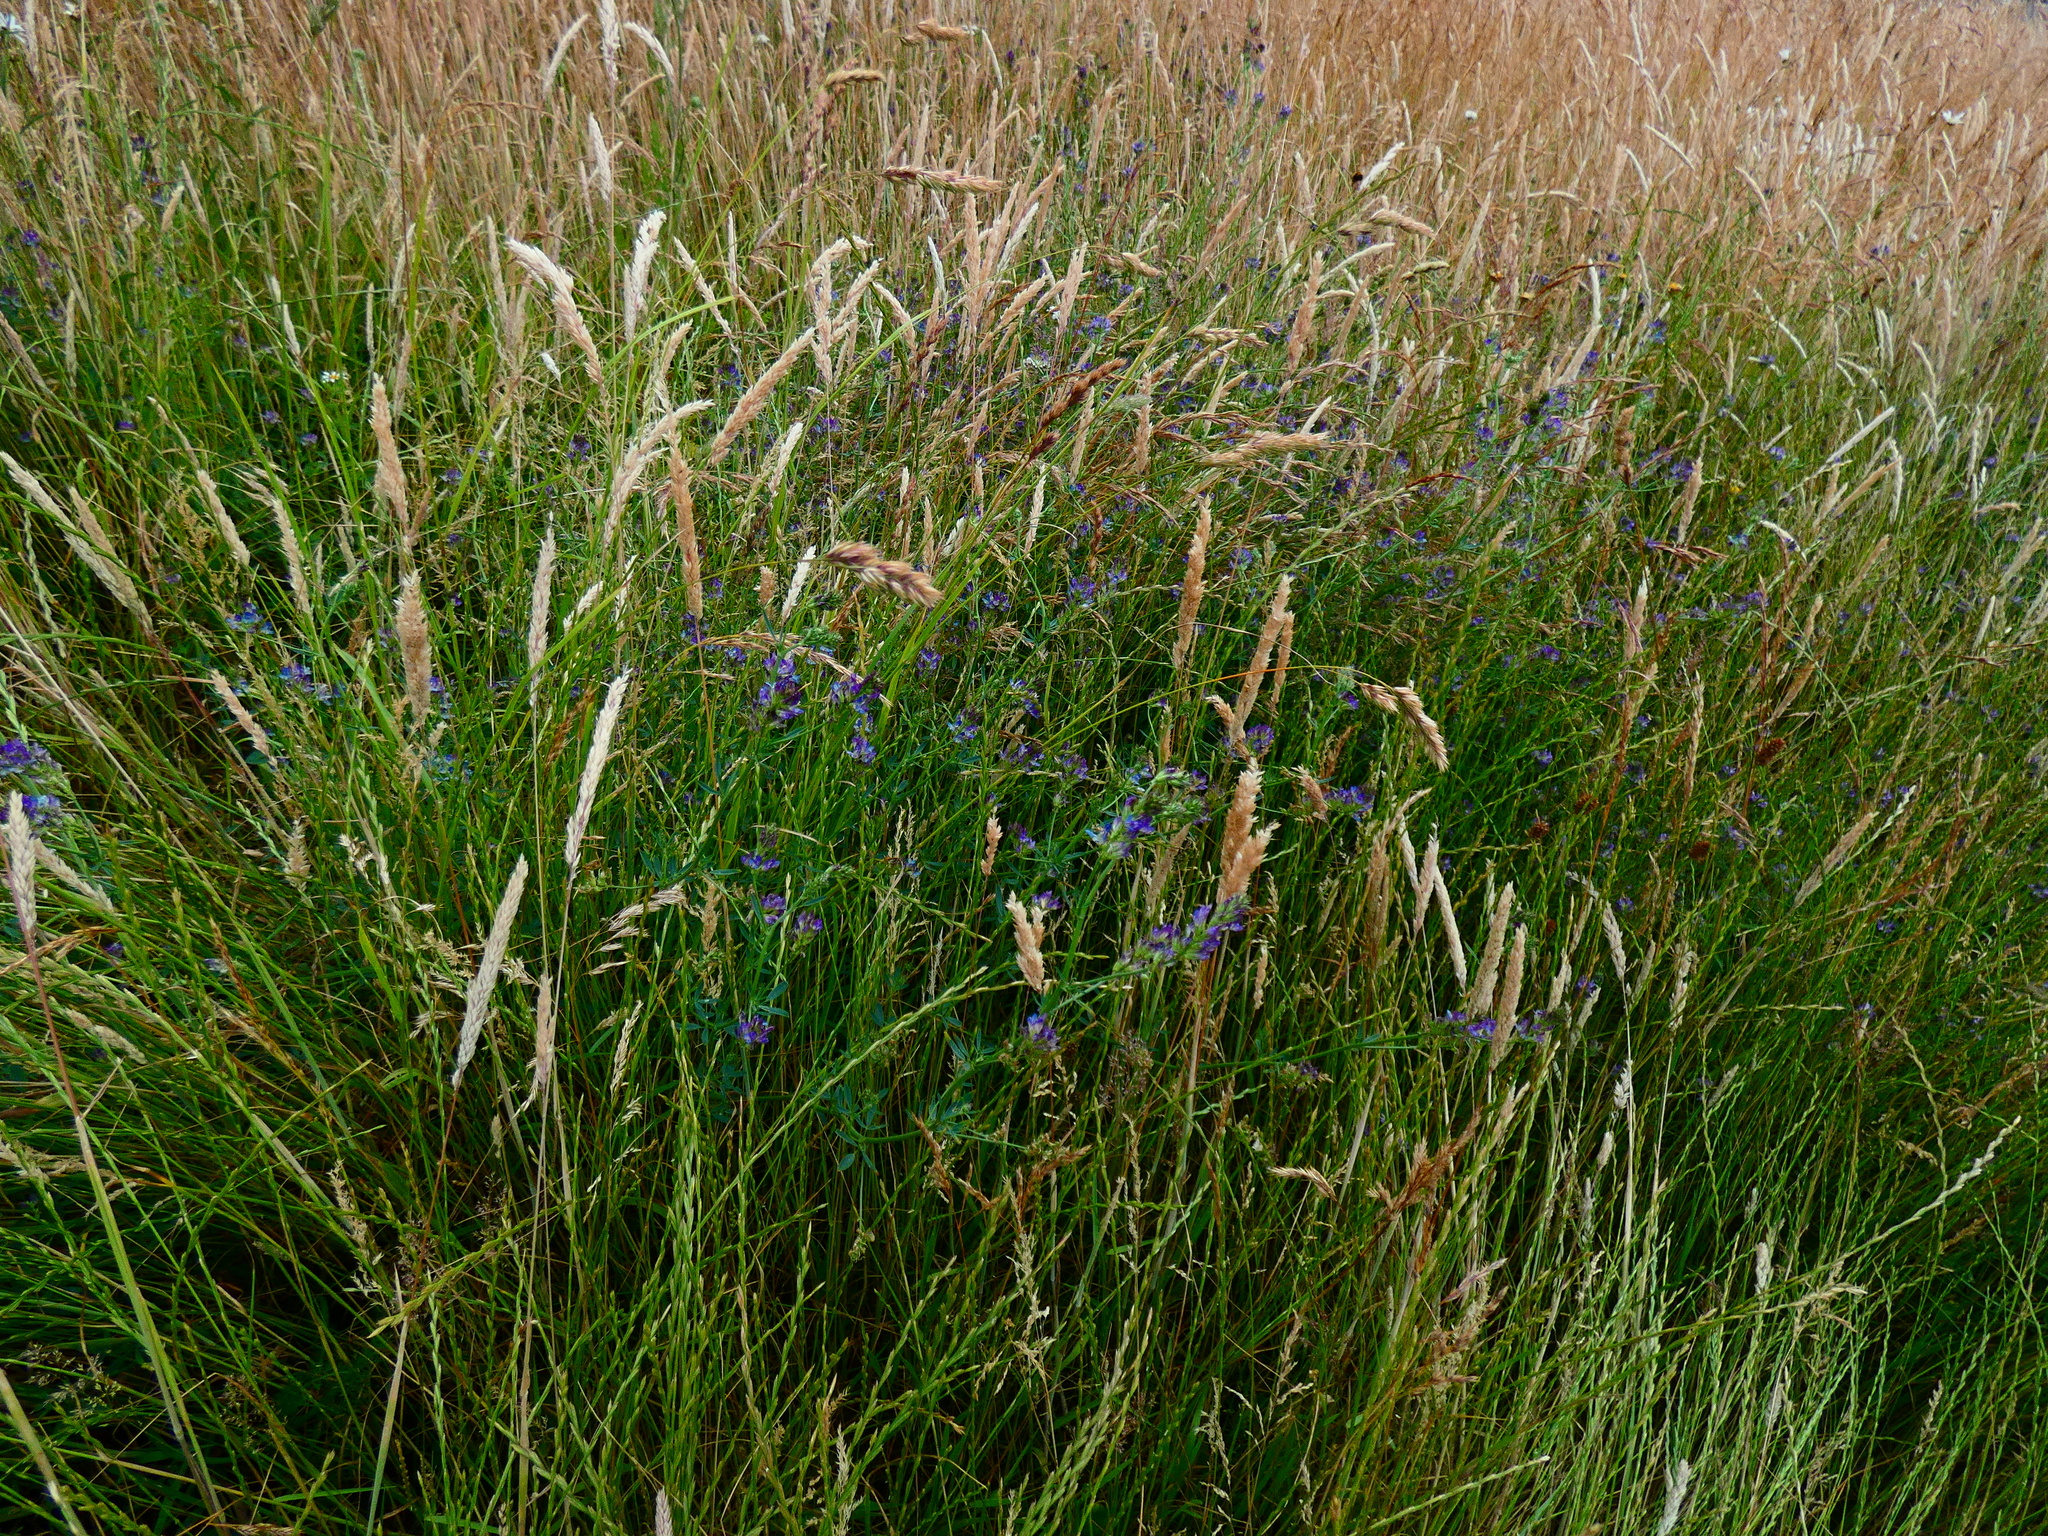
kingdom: Plantae
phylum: Tracheophyta
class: Magnoliopsida
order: Fabales
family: Fabaceae
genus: Medicago
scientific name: Medicago sativa
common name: Alfalfa
